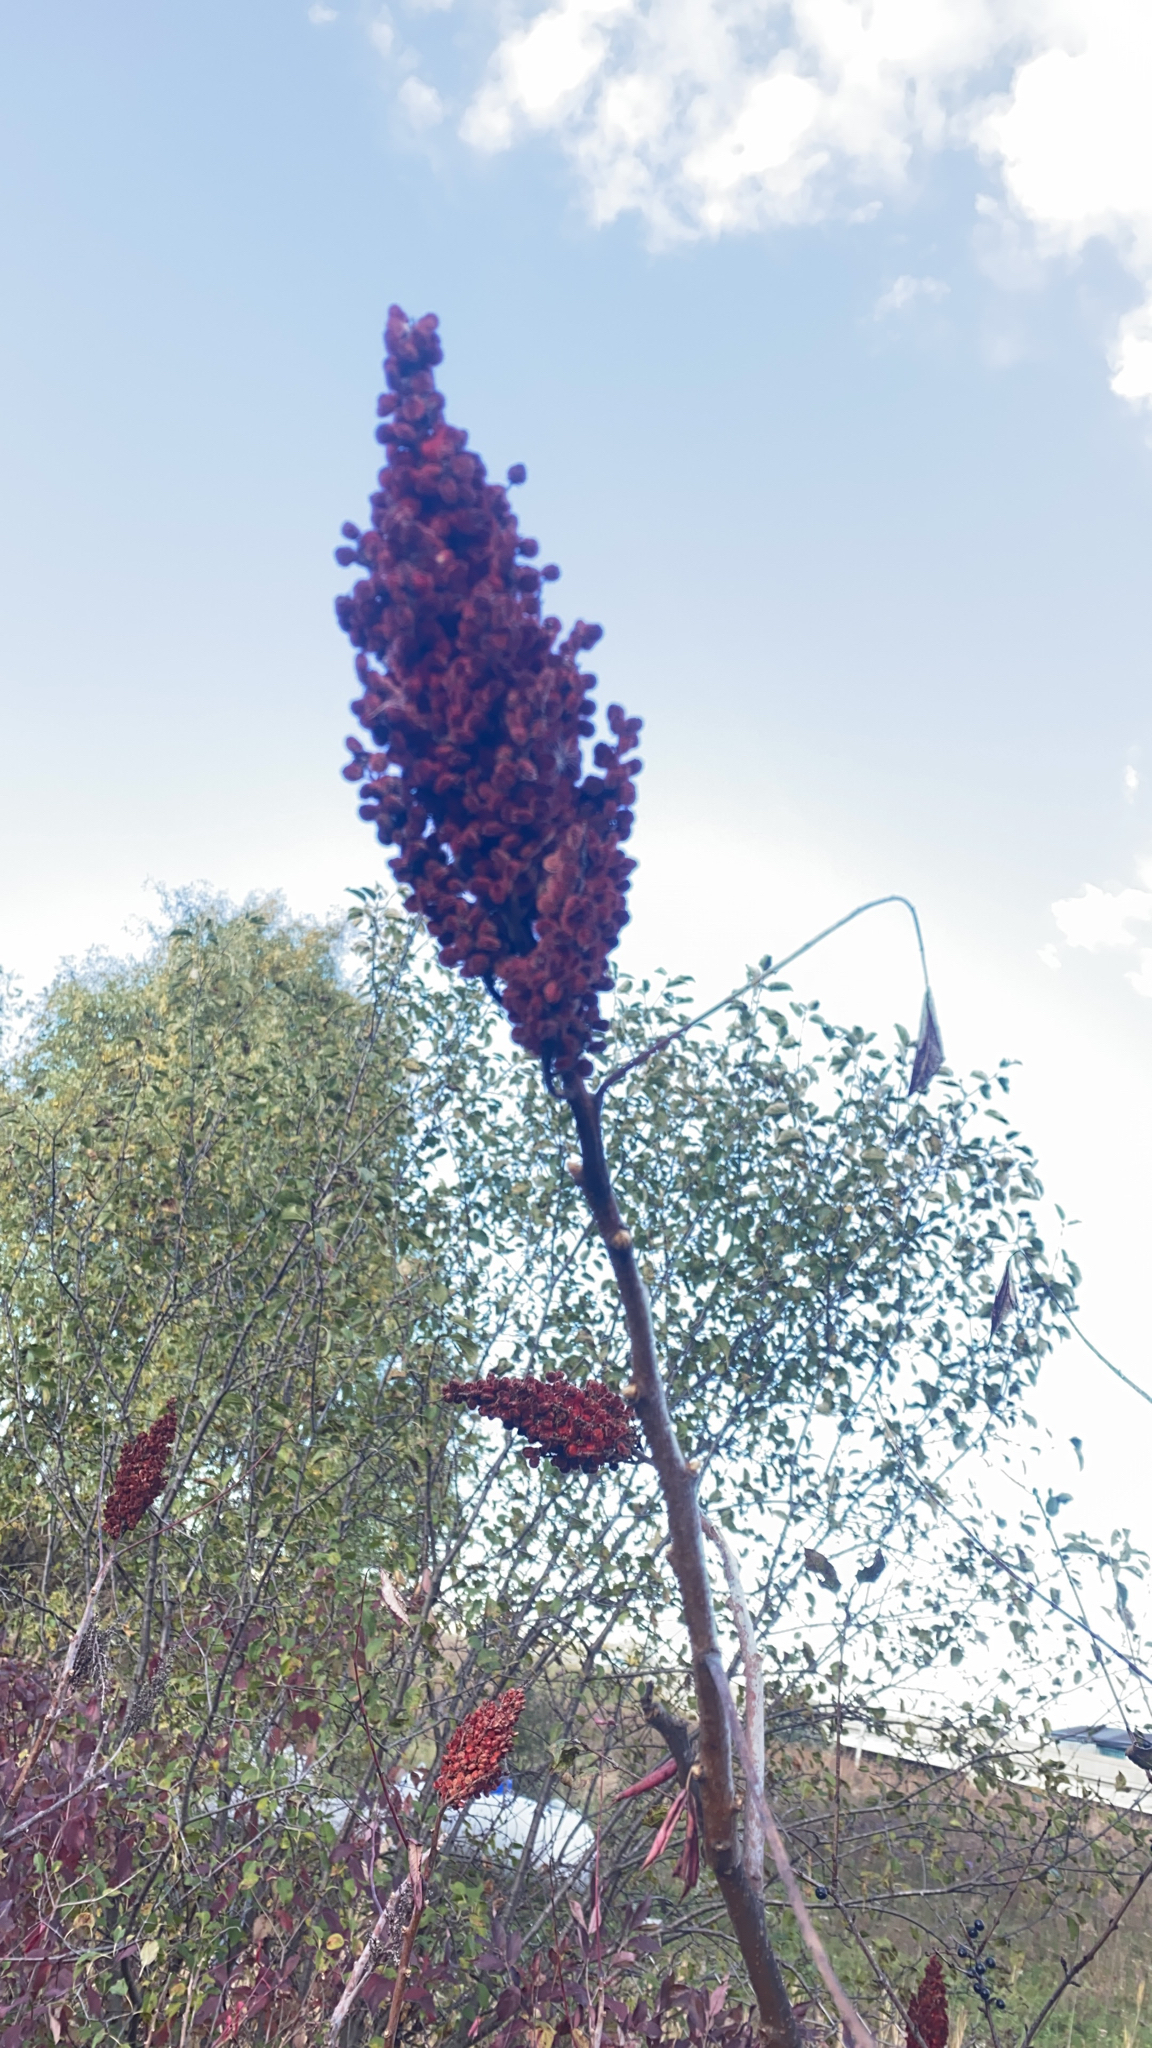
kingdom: Plantae
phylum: Tracheophyta
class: Magnoliopsida
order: Sapindales
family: Anacardiaceae
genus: Rhus
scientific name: Rhus glabra
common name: Scarlet sumac
